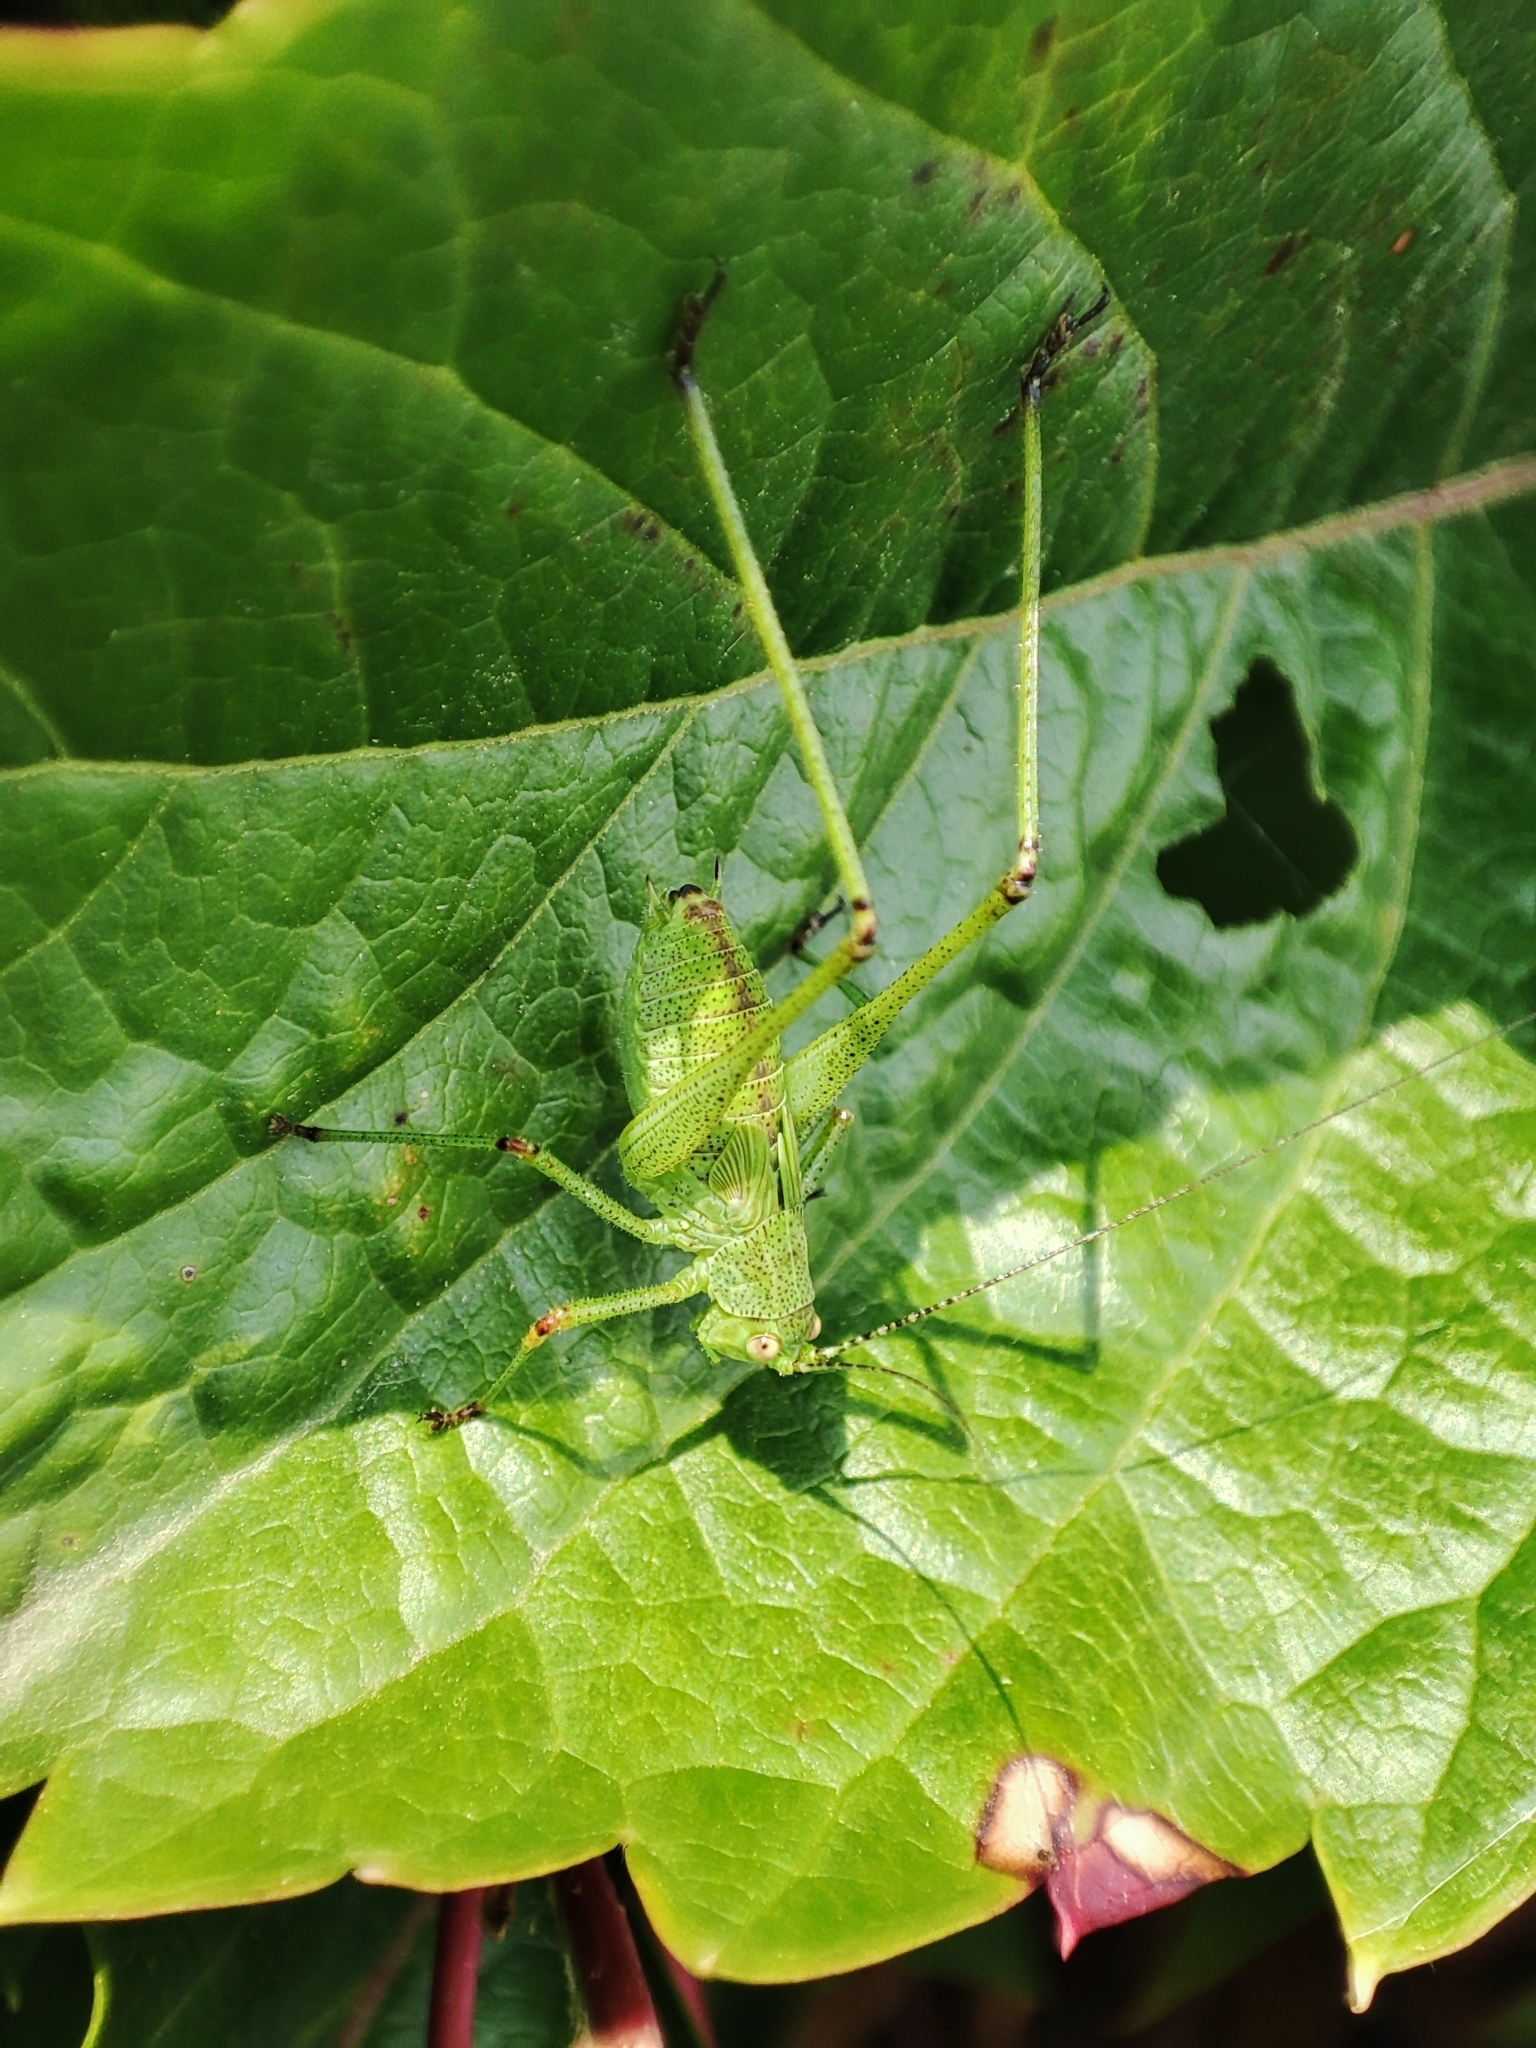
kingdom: Animalia
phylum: Arthropoda
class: Insecta
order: Orthoptera
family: Tettigoniidae
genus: Phaneroptera
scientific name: Phaneroptera nana
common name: Southern sickle bush-cricket
